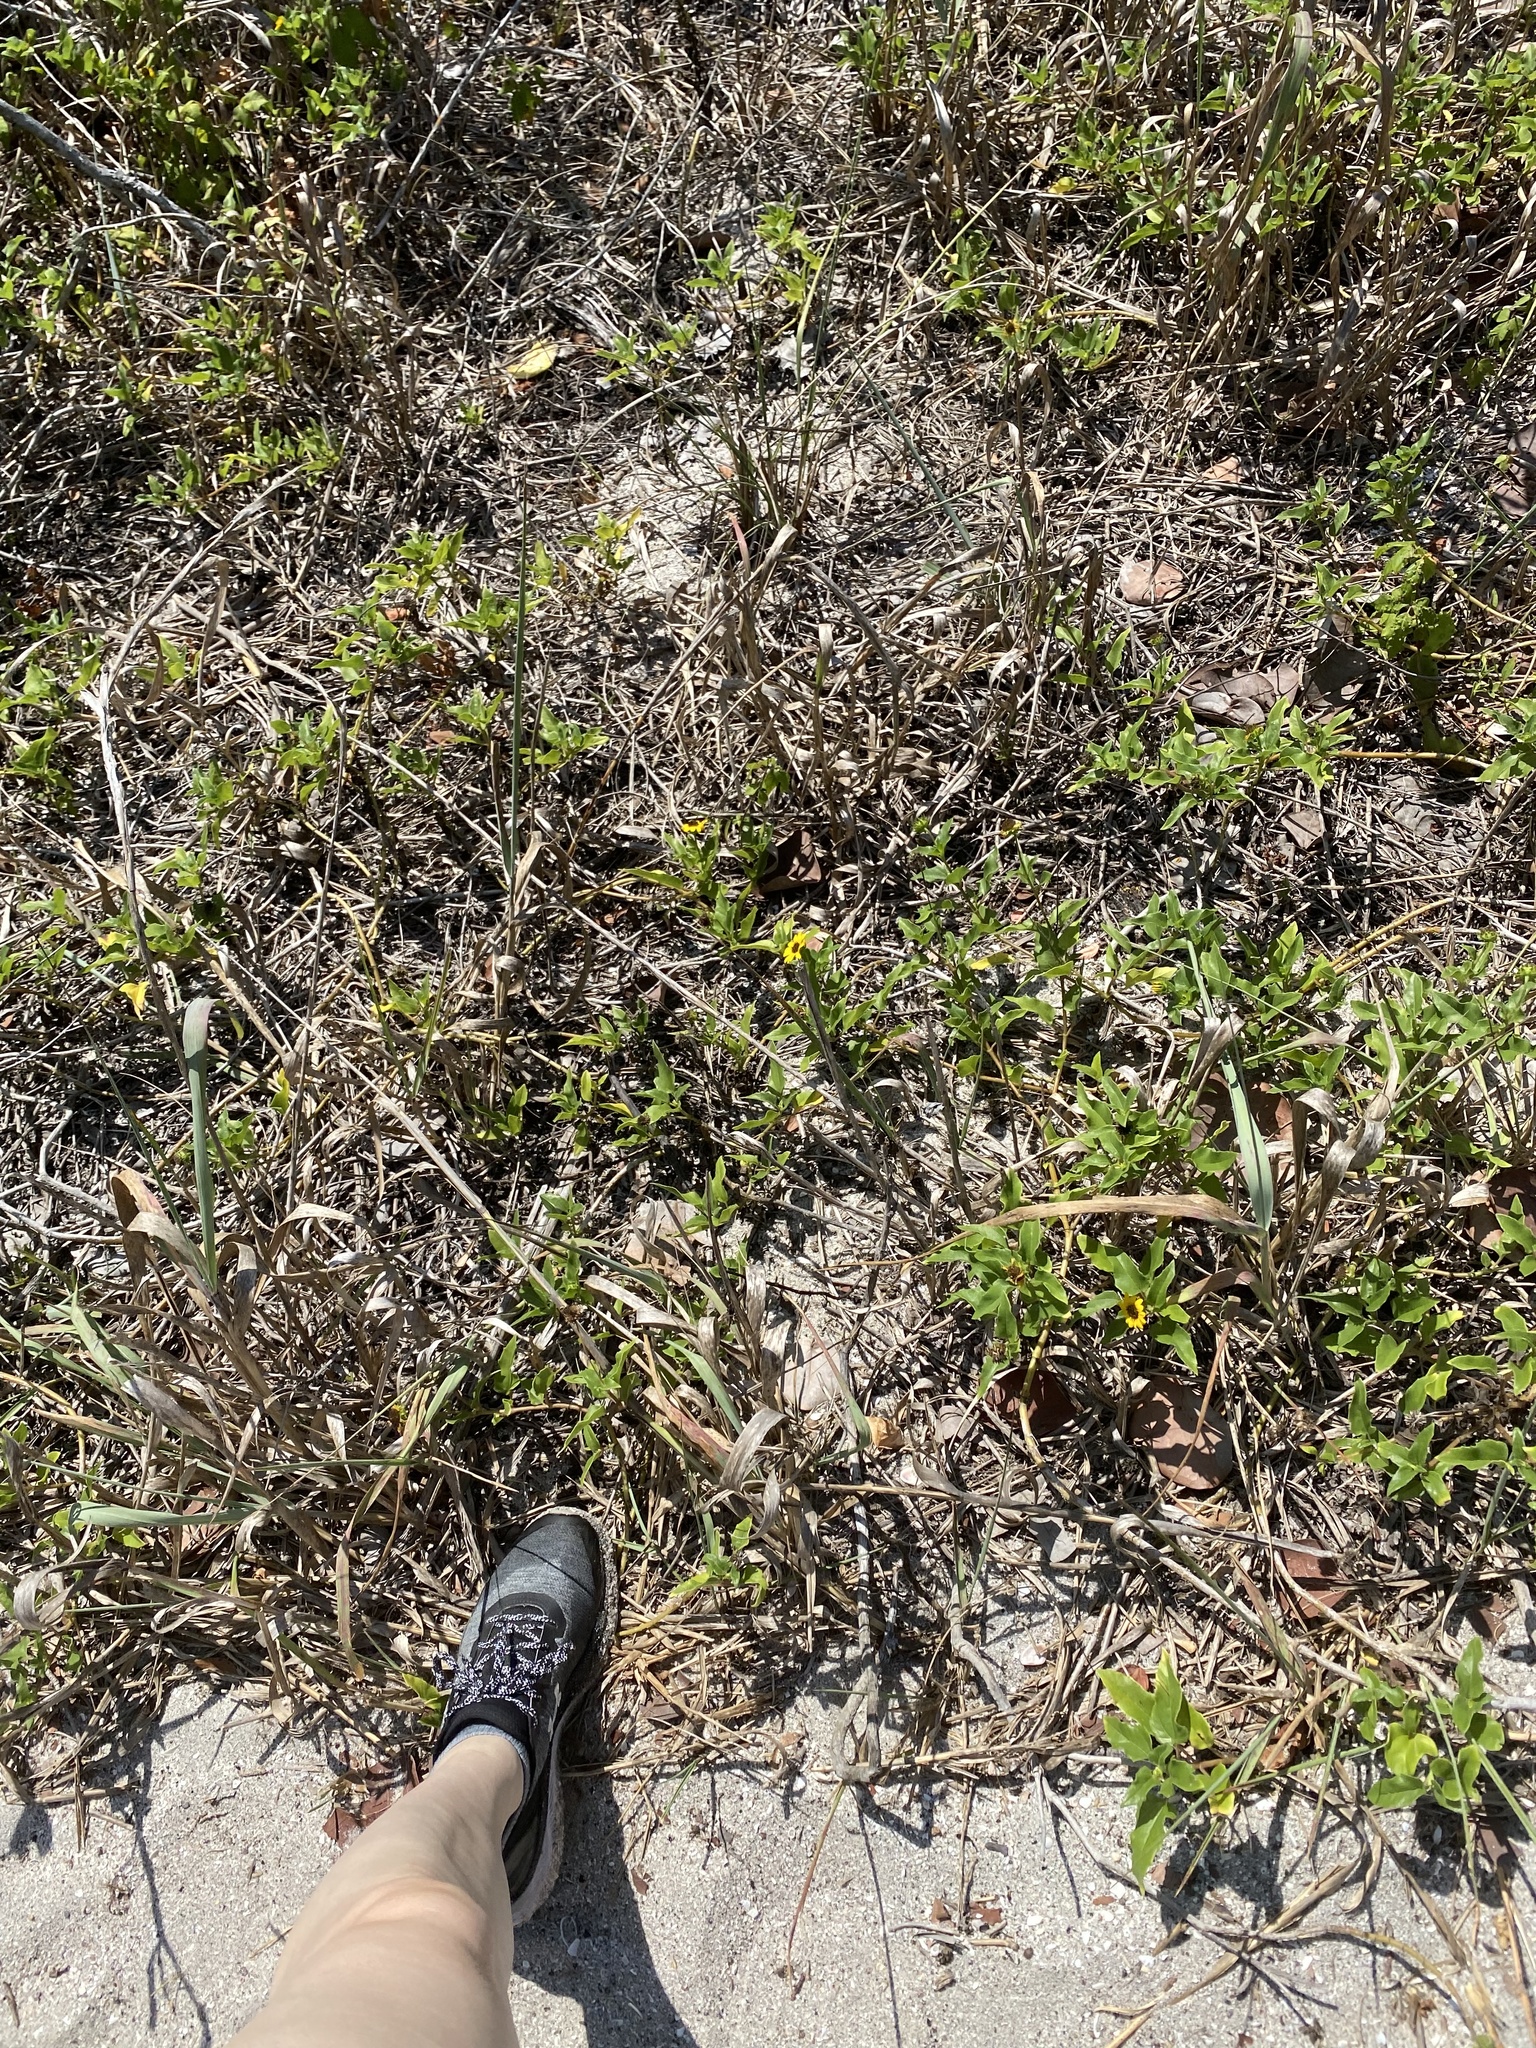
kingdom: Plantae
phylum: Tracheophyta
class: Magnoliopsida
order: Asterales
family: Asteraceae
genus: Helianthus
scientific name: Helianthus debilis
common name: Weak sunflower
